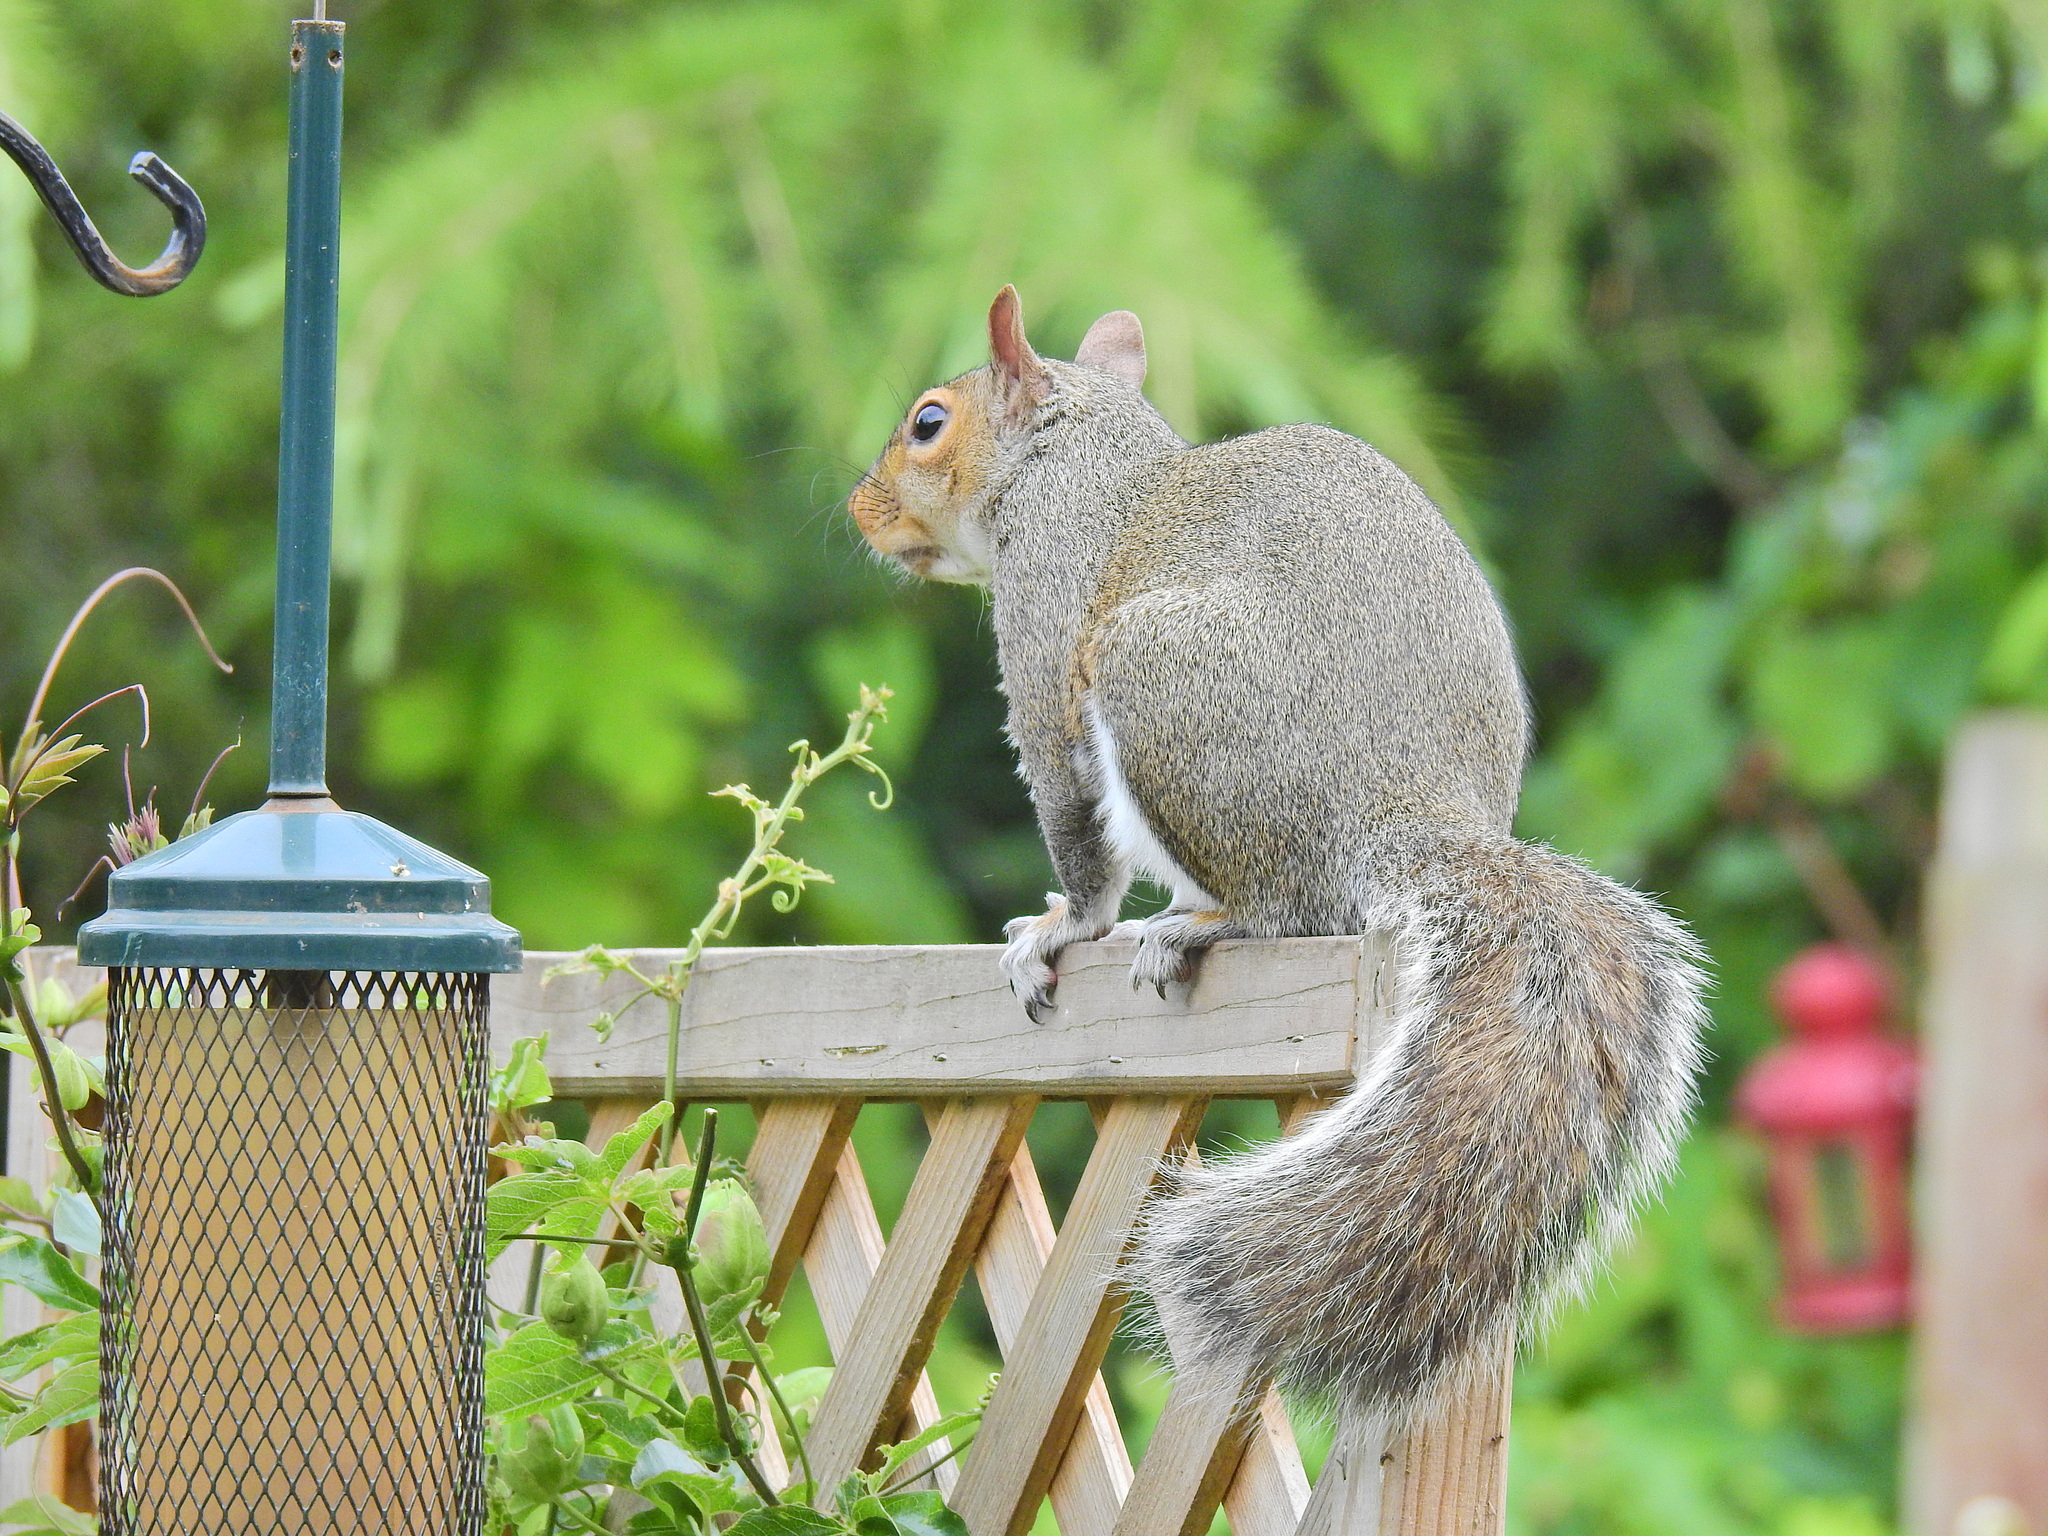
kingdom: Animalia
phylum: Chordata
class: Mammalia
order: Rodentia
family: Sciuridae
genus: Sciurus
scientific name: Sciurus carolinensis
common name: Eastern gray squirrel
